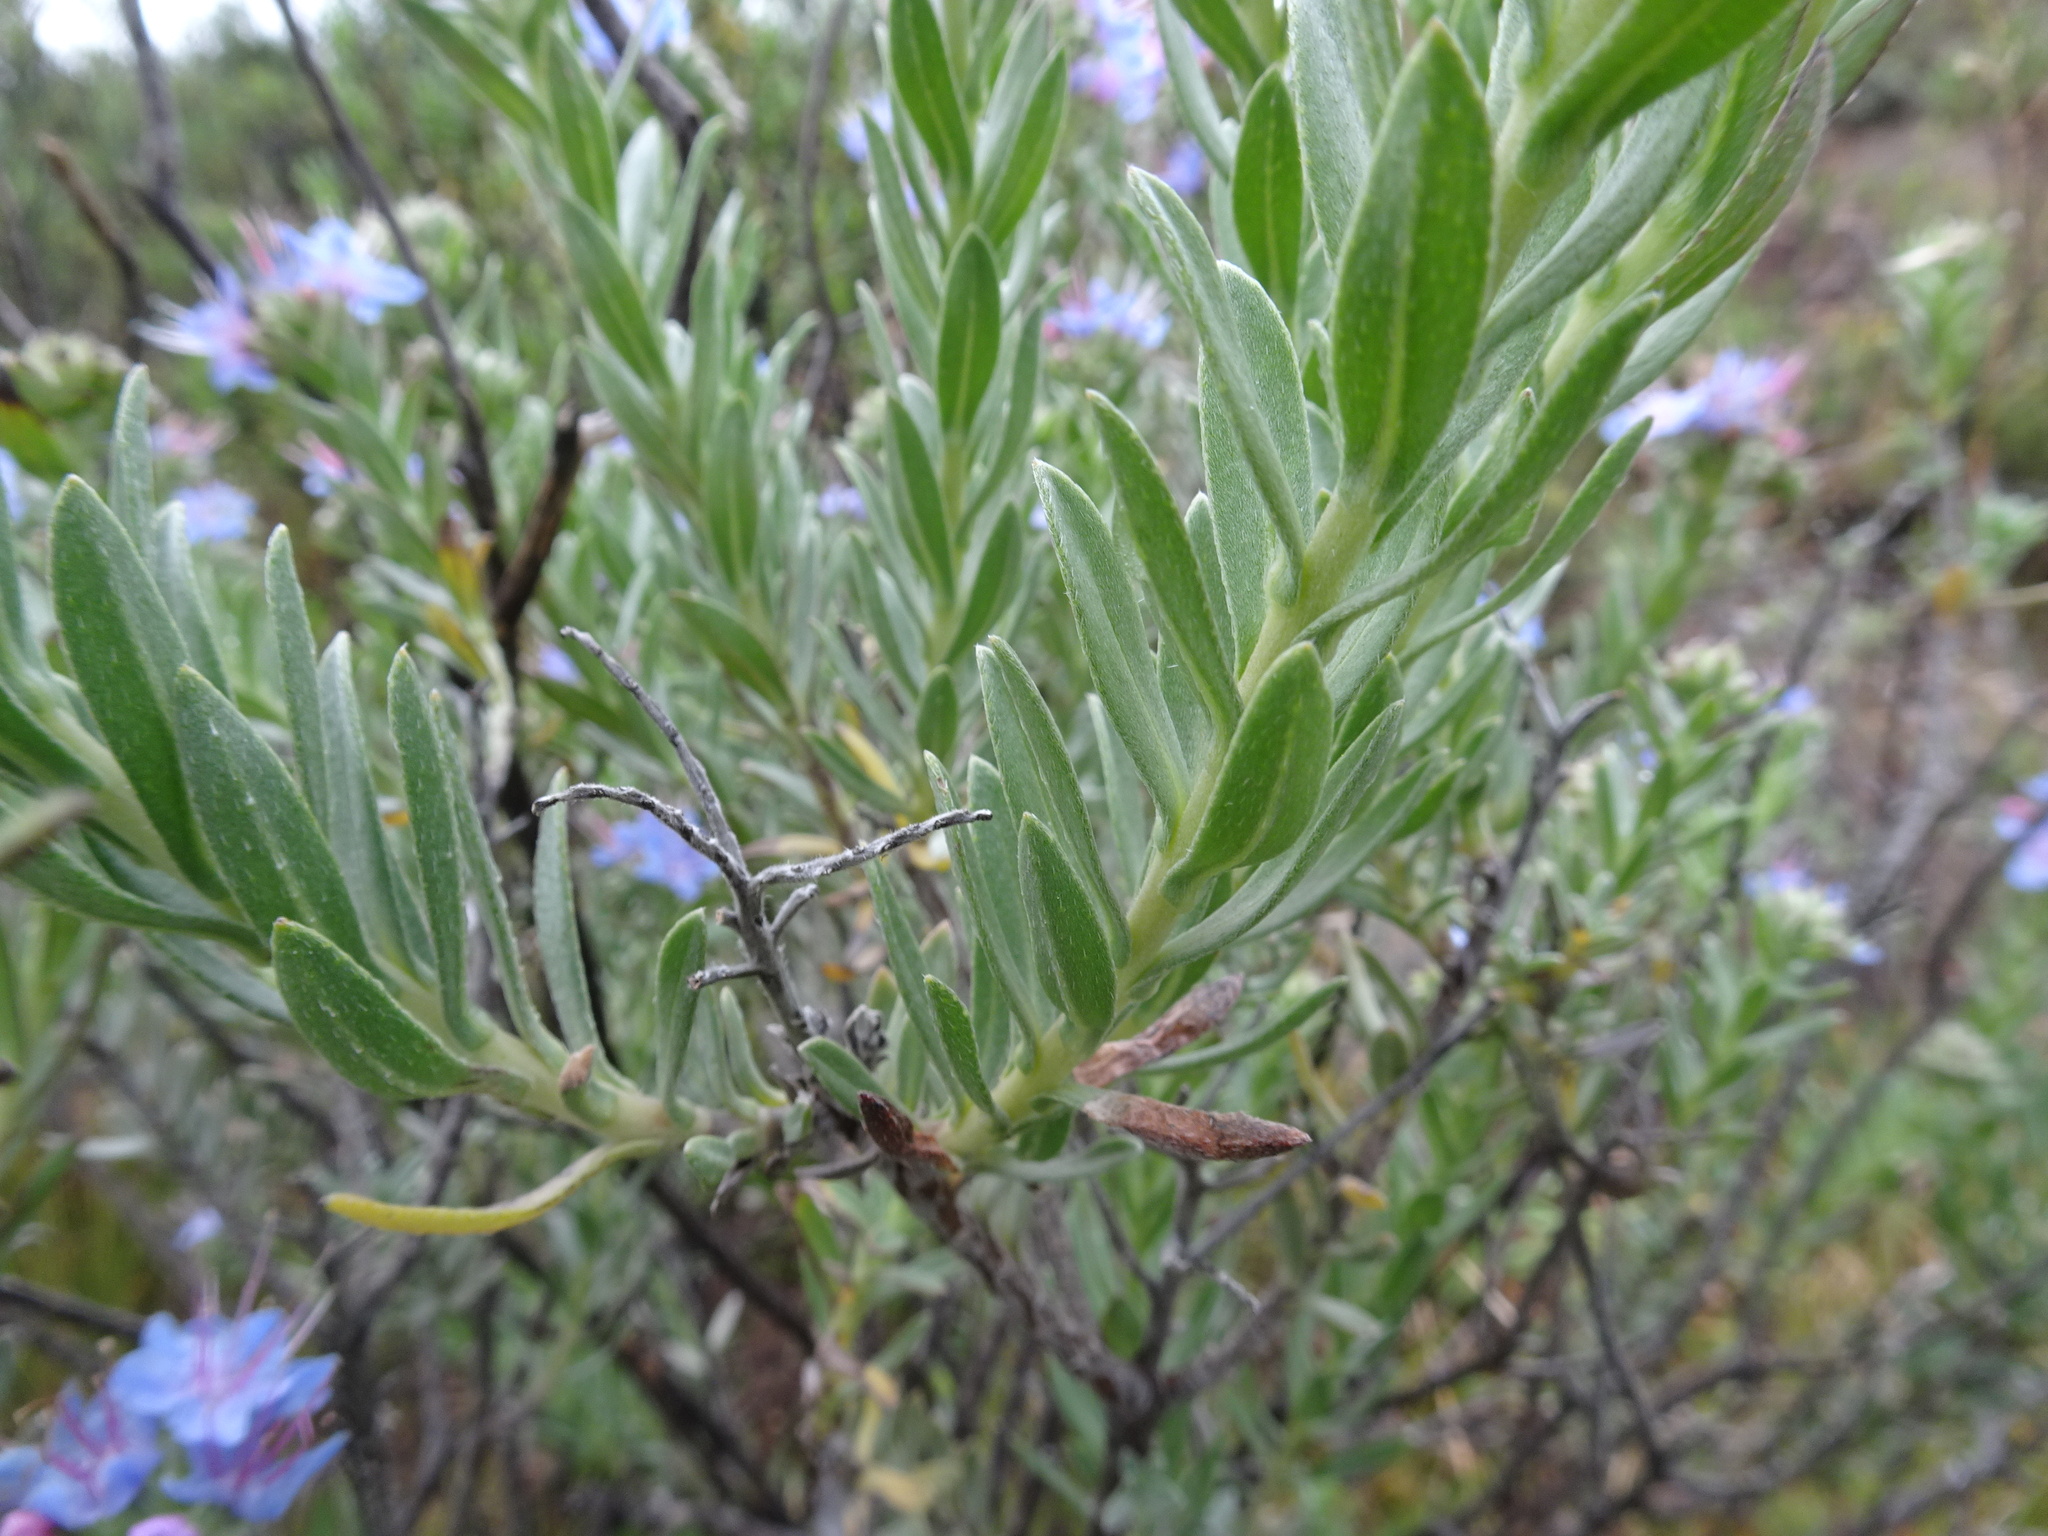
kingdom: Plantae
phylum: Tracheophyta
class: Magnoliopsida
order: Boraginales
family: Boraginaceae
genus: Lobostemon
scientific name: Lobostemon echioides
